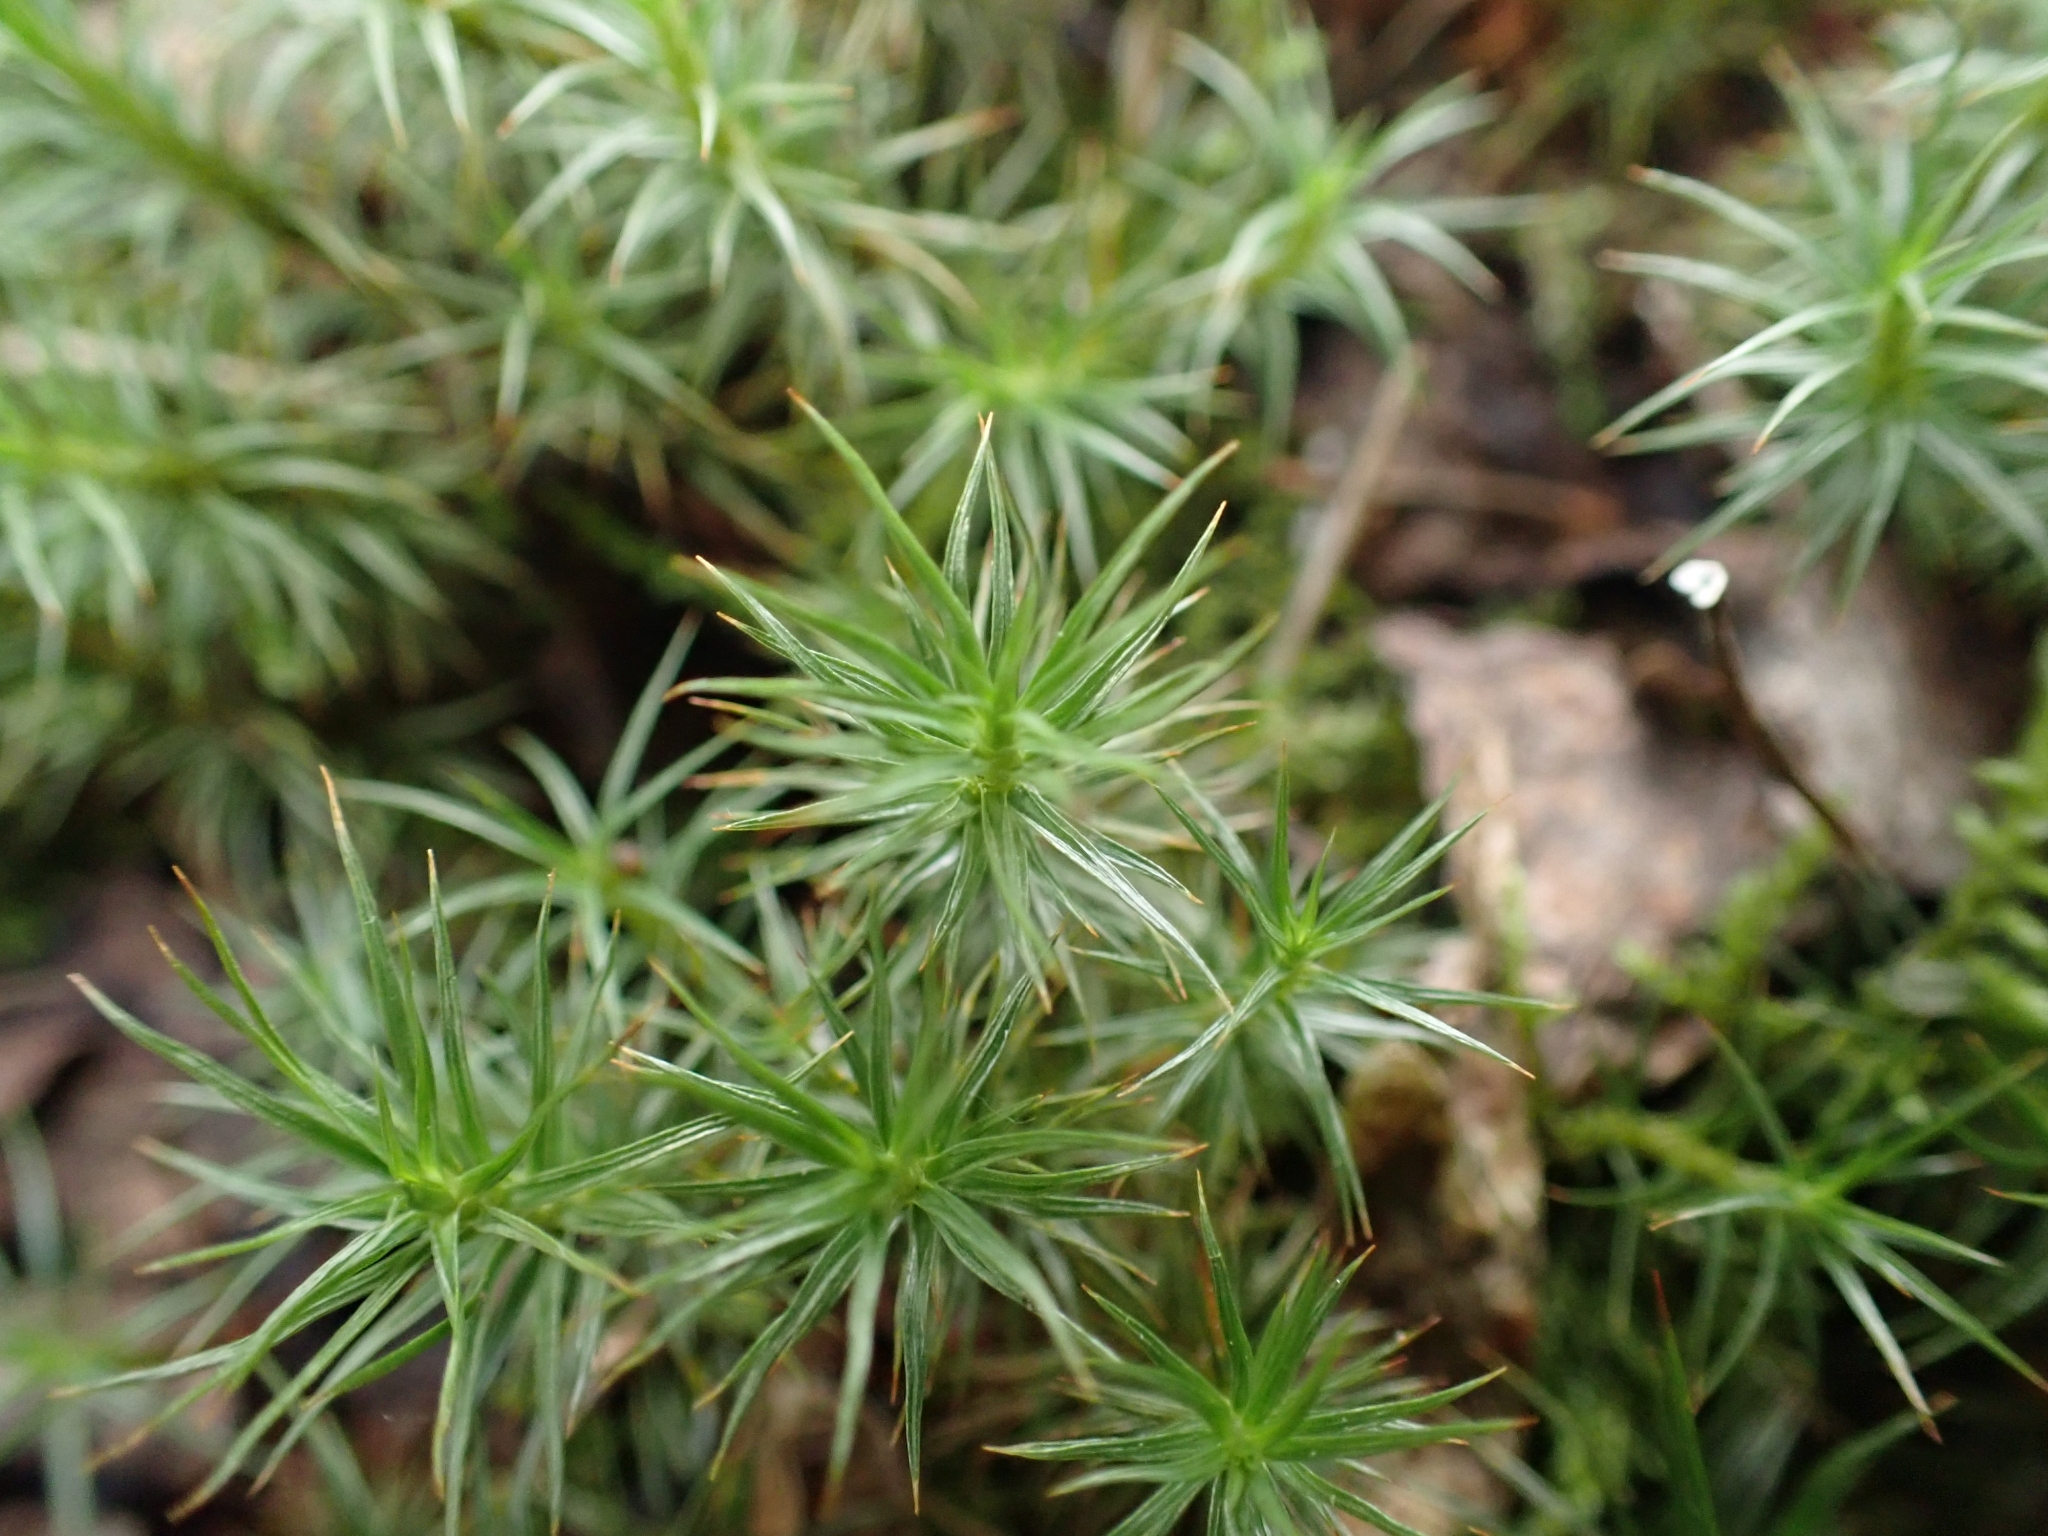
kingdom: Plantae
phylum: Bryophyta
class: Polytrichopsida
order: Polytrichales
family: Polytrichaceae
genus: Polytrichum
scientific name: Polytrichum juniperinum
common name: Juniper haircap moss
